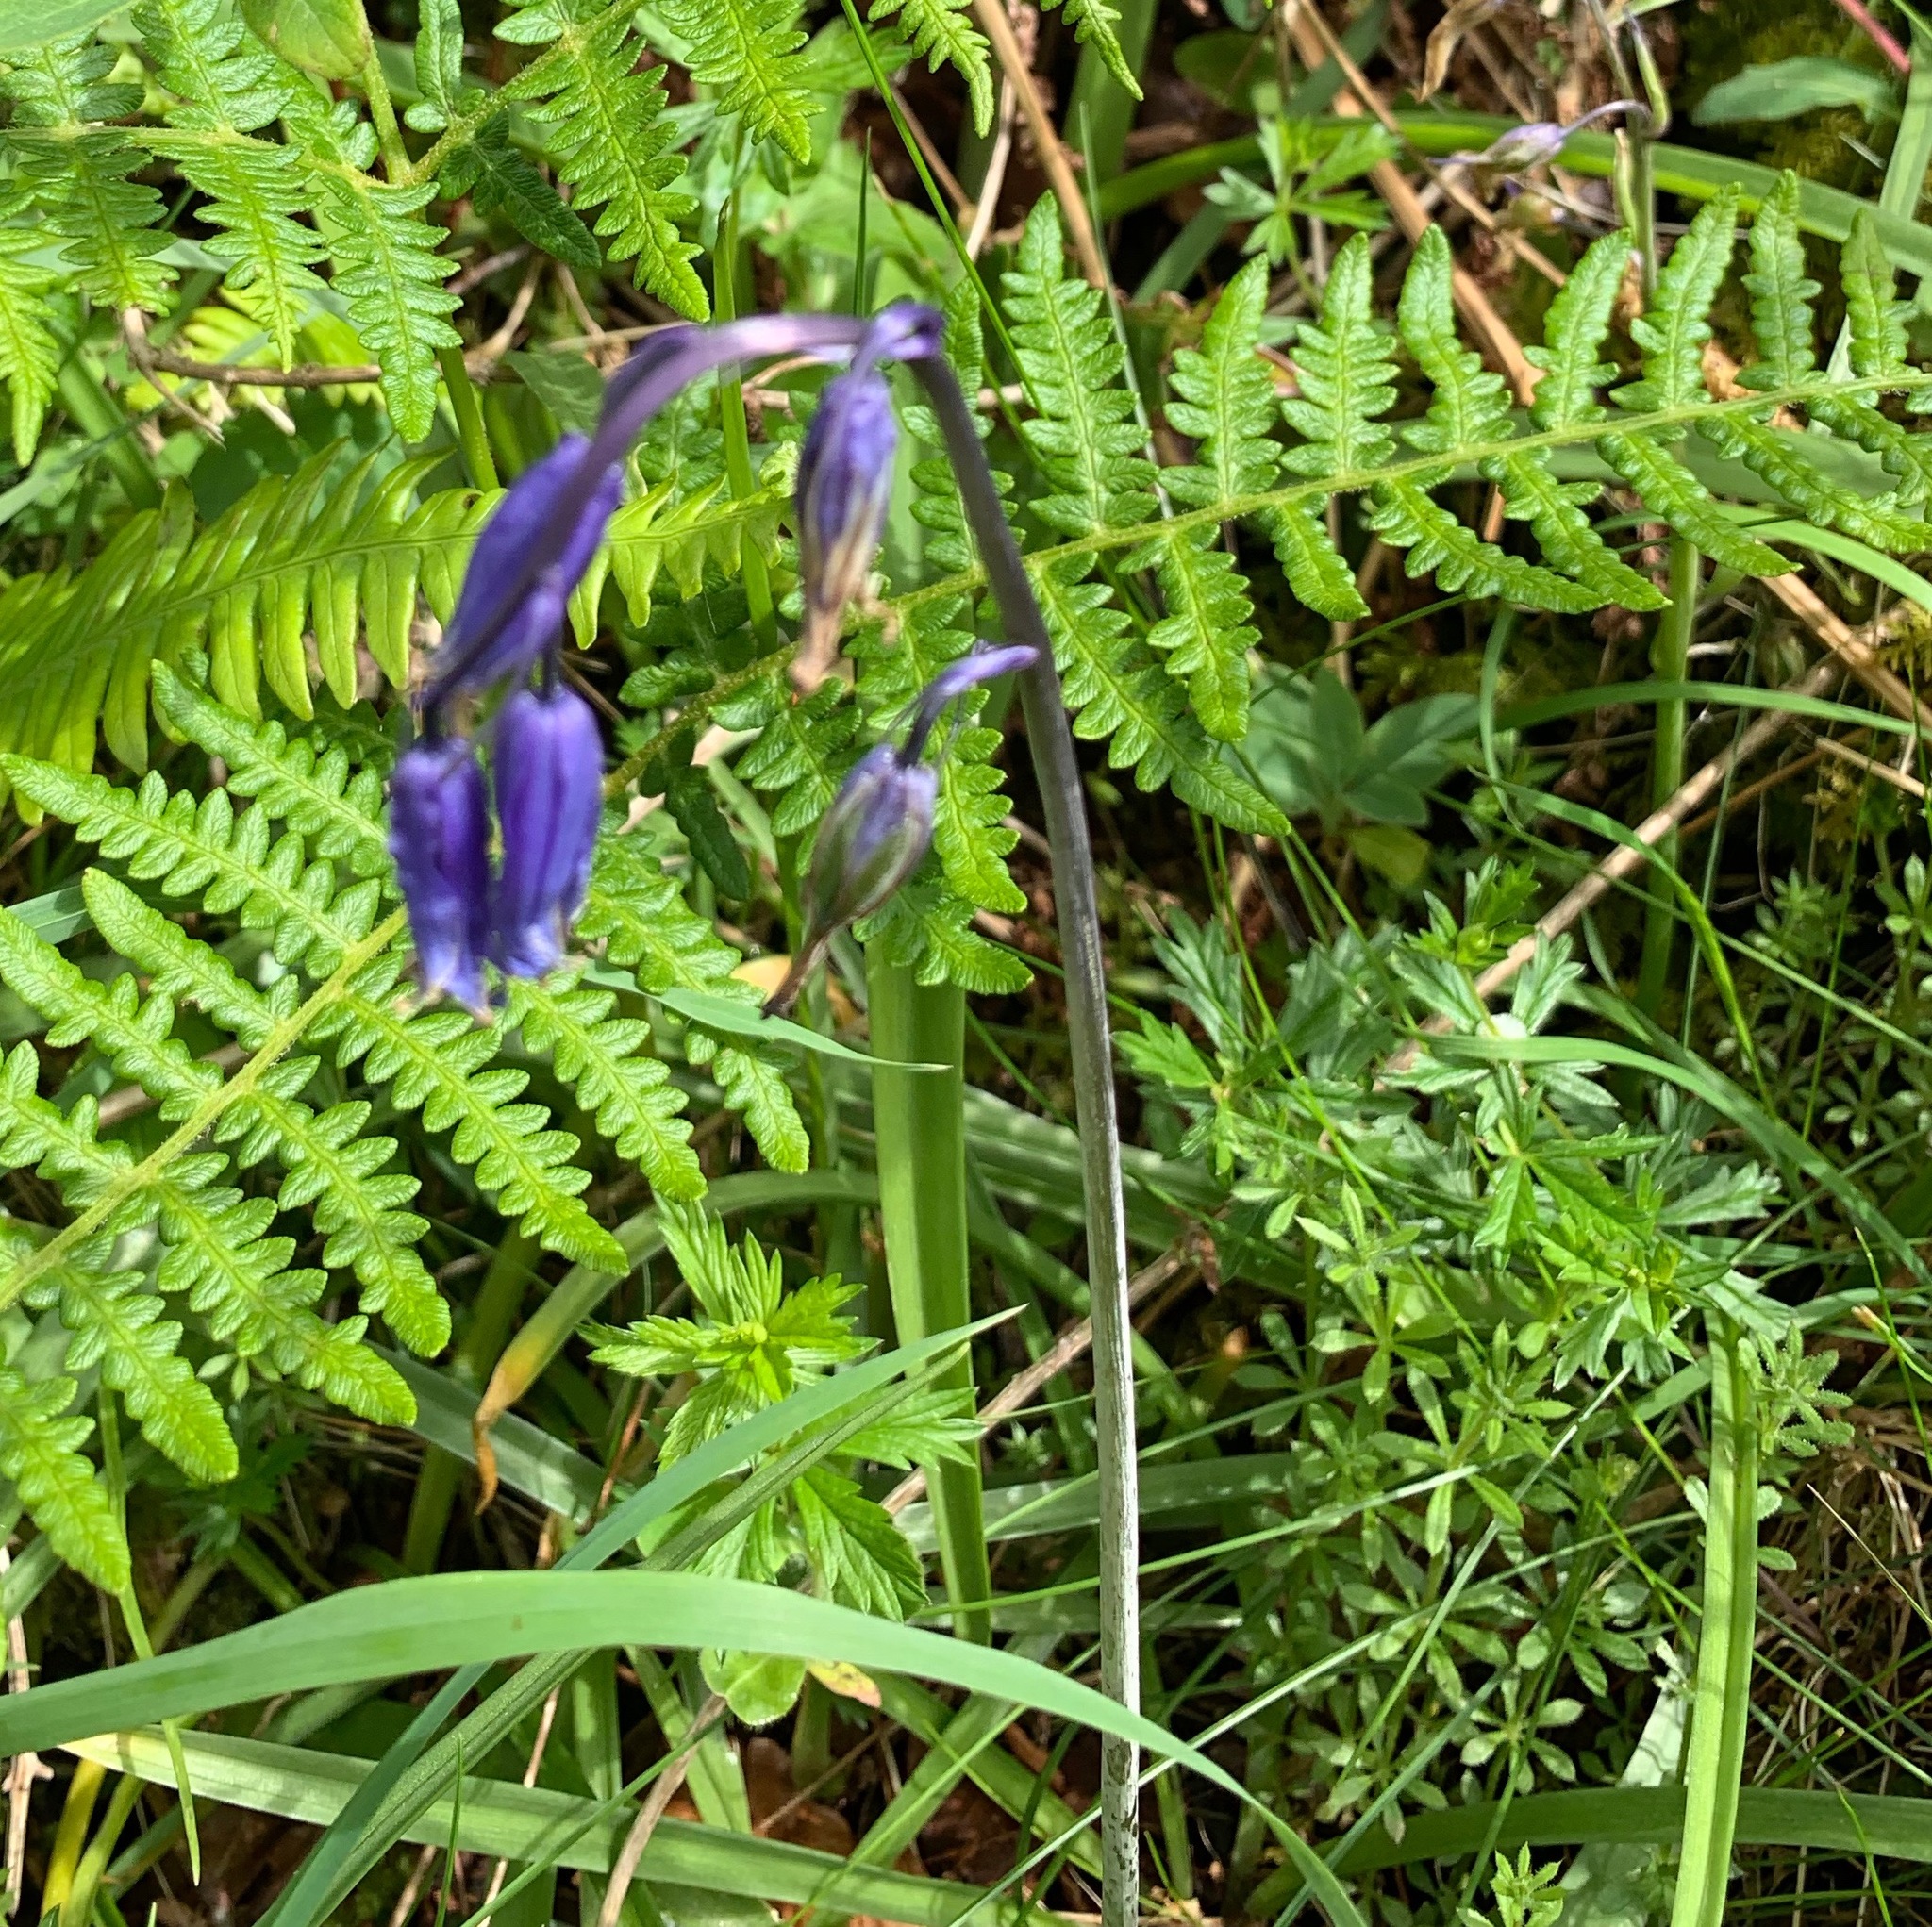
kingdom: Plantae
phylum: Tracheophyta
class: Liliopsida
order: Asparagales
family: Asparagaceae
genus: Hyacinthoides
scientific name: Hyacinthoides non-scripta
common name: Bluebell
